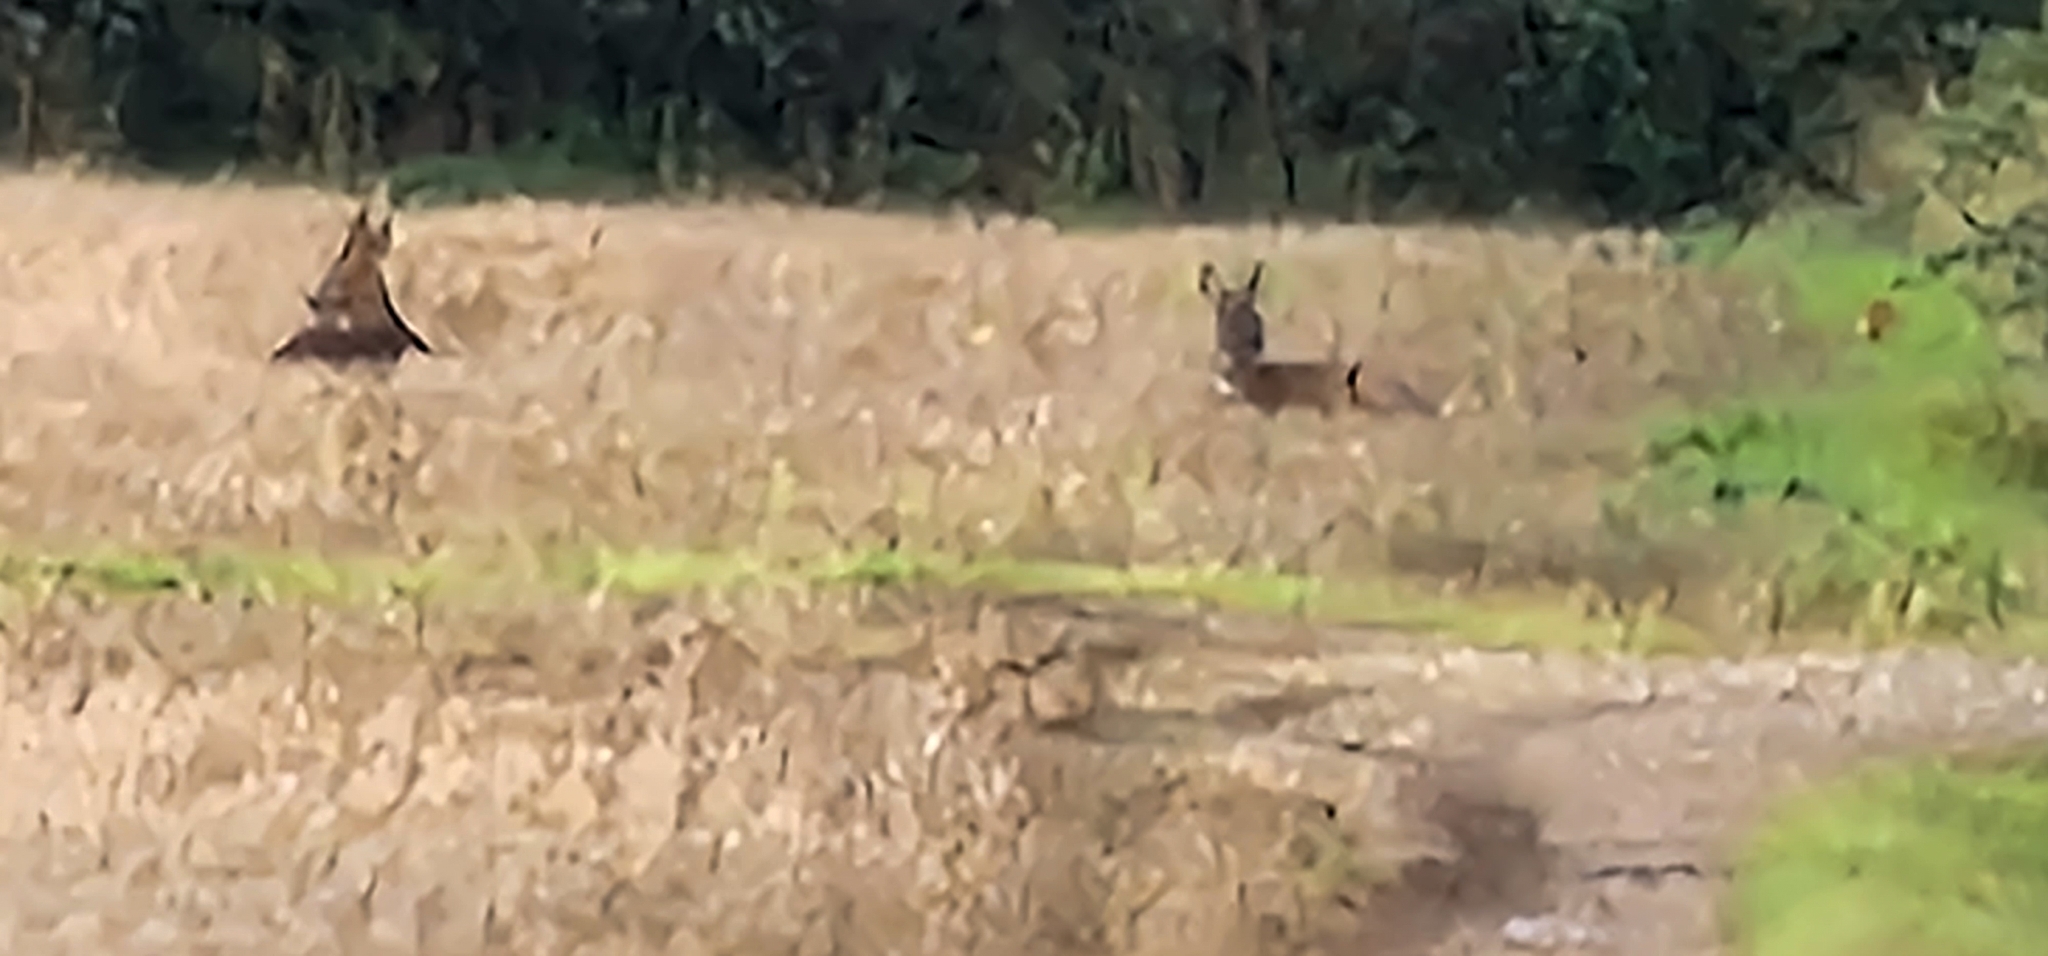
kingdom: Animalia
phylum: Chordata
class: Mammalia
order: Artiodactyla
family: Cervidae
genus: Capreolus
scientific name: Capreolus capreolus
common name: Western roe deer
